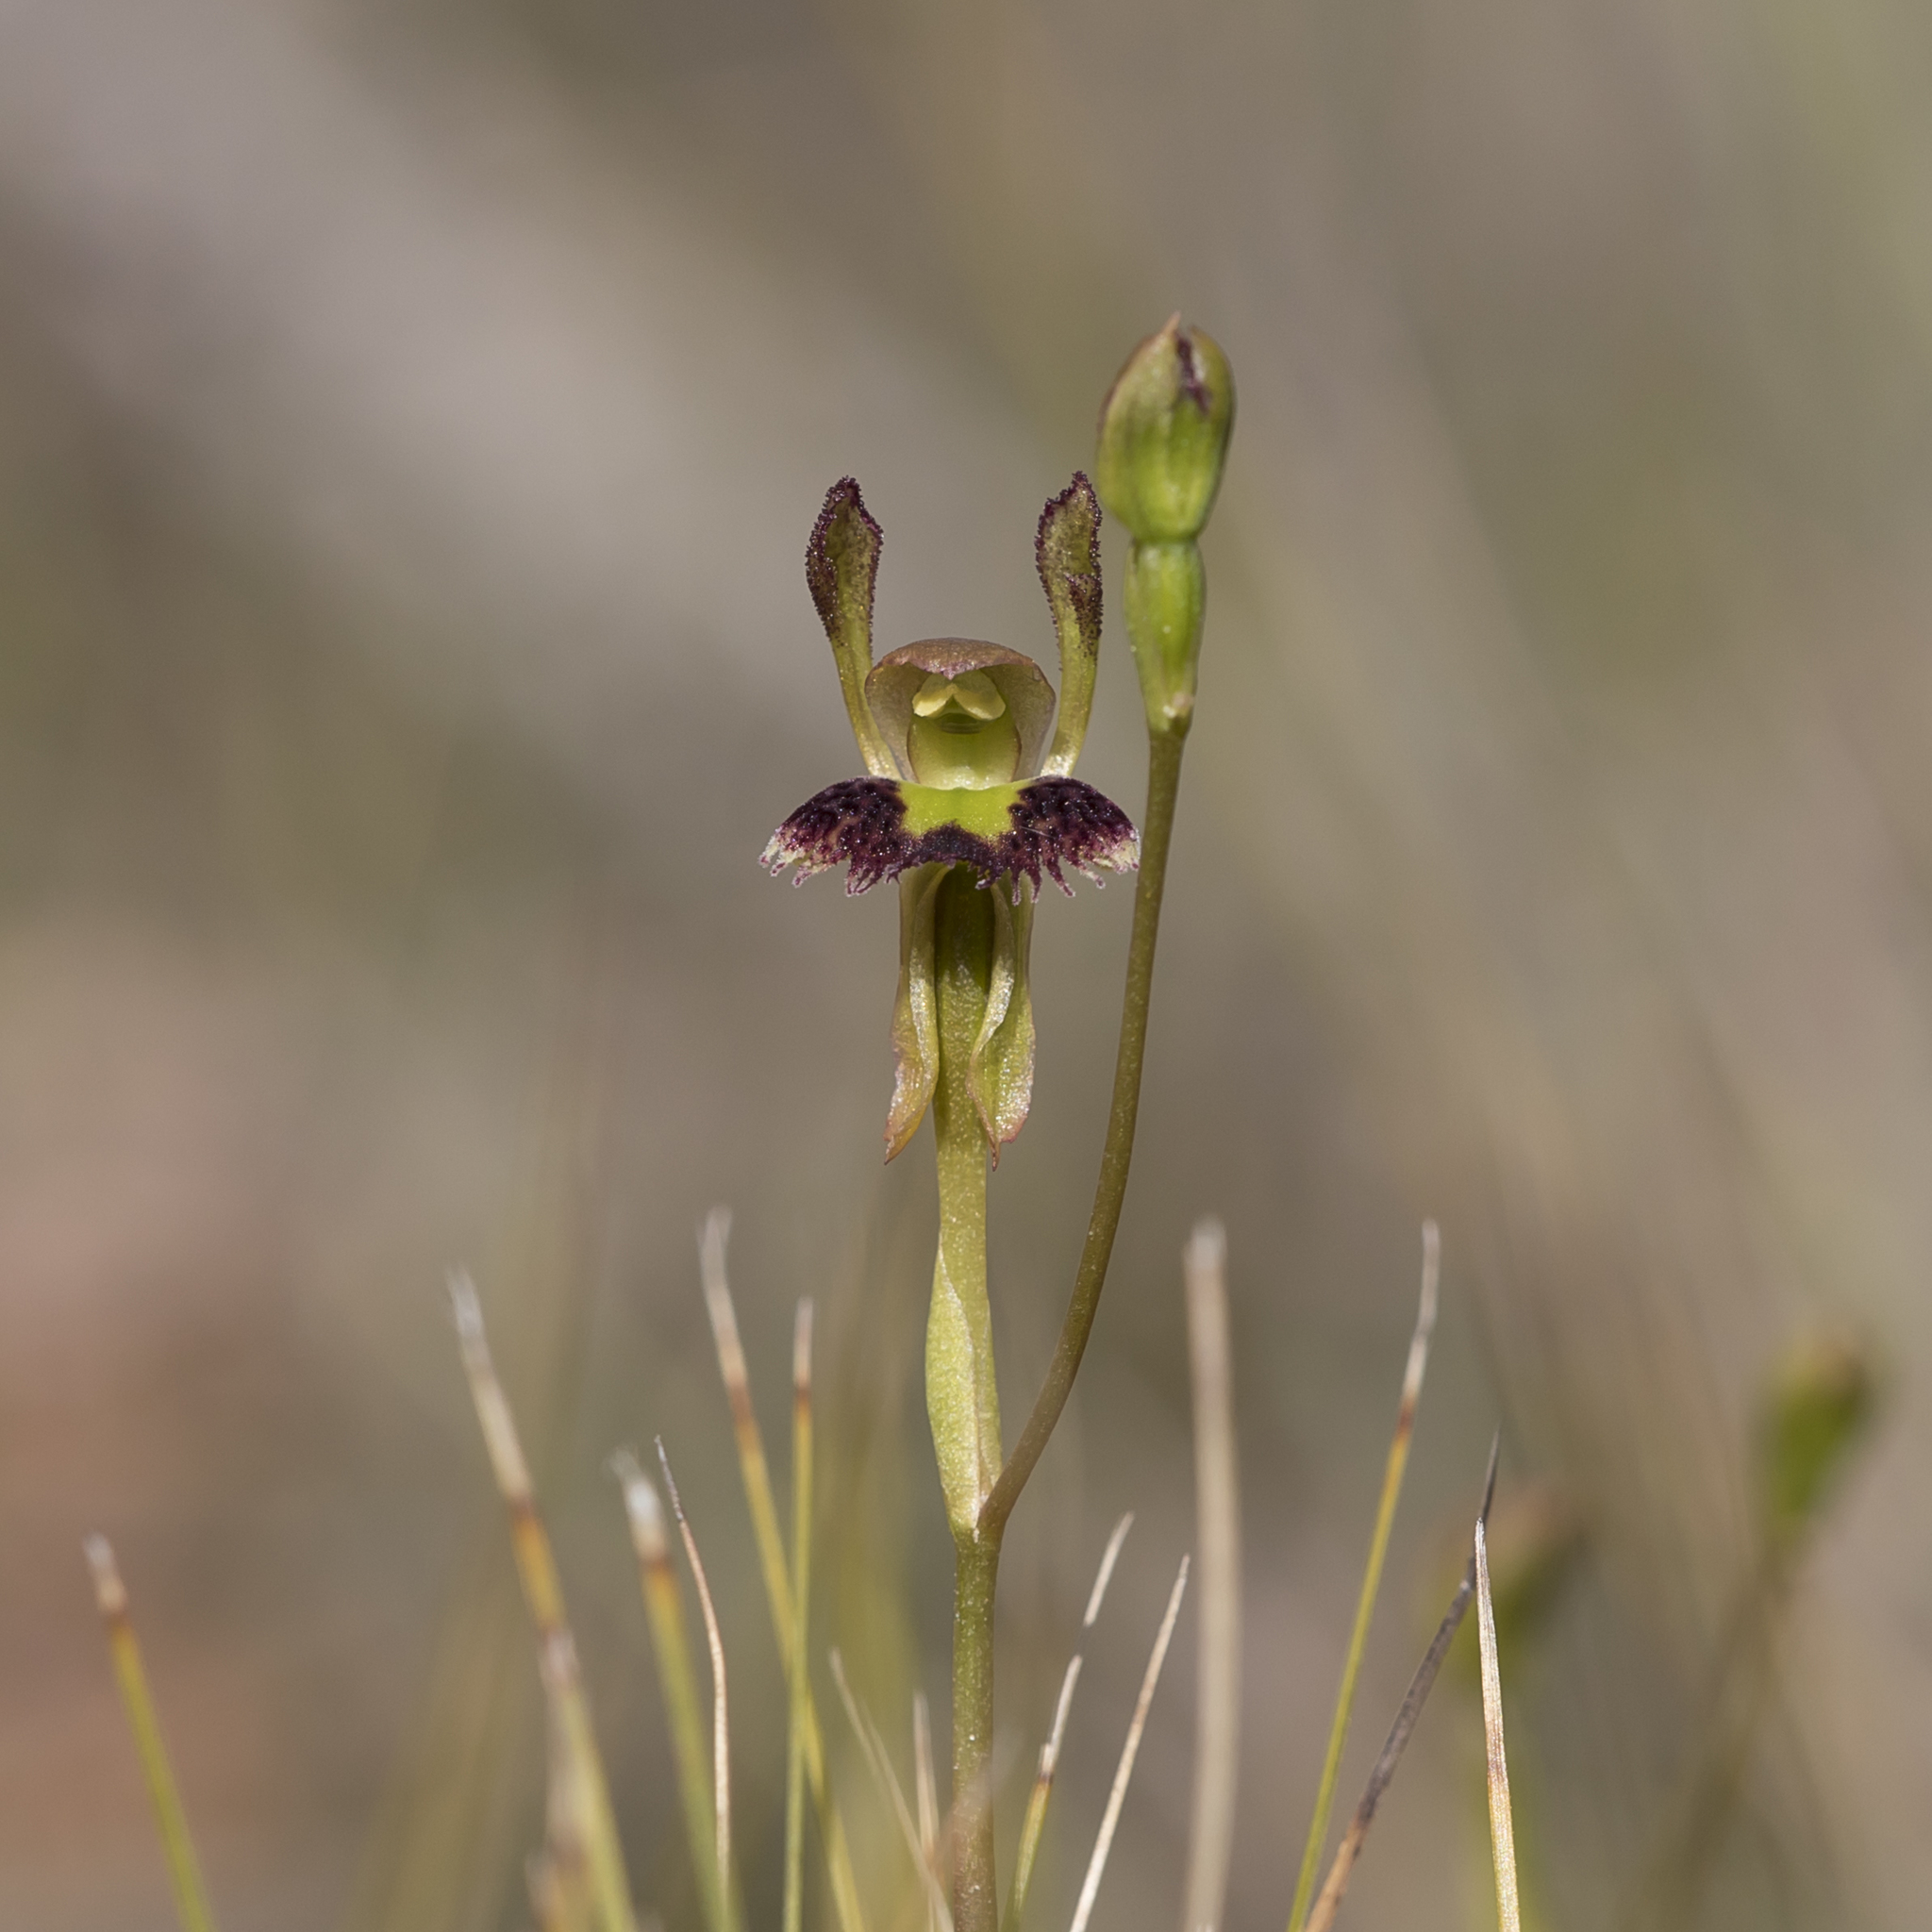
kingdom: Plantae
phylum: Tracheophyta
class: Liliopsida
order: Asparagales
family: Orchidaceae
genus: Leporella
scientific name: Leporella fimbriata
